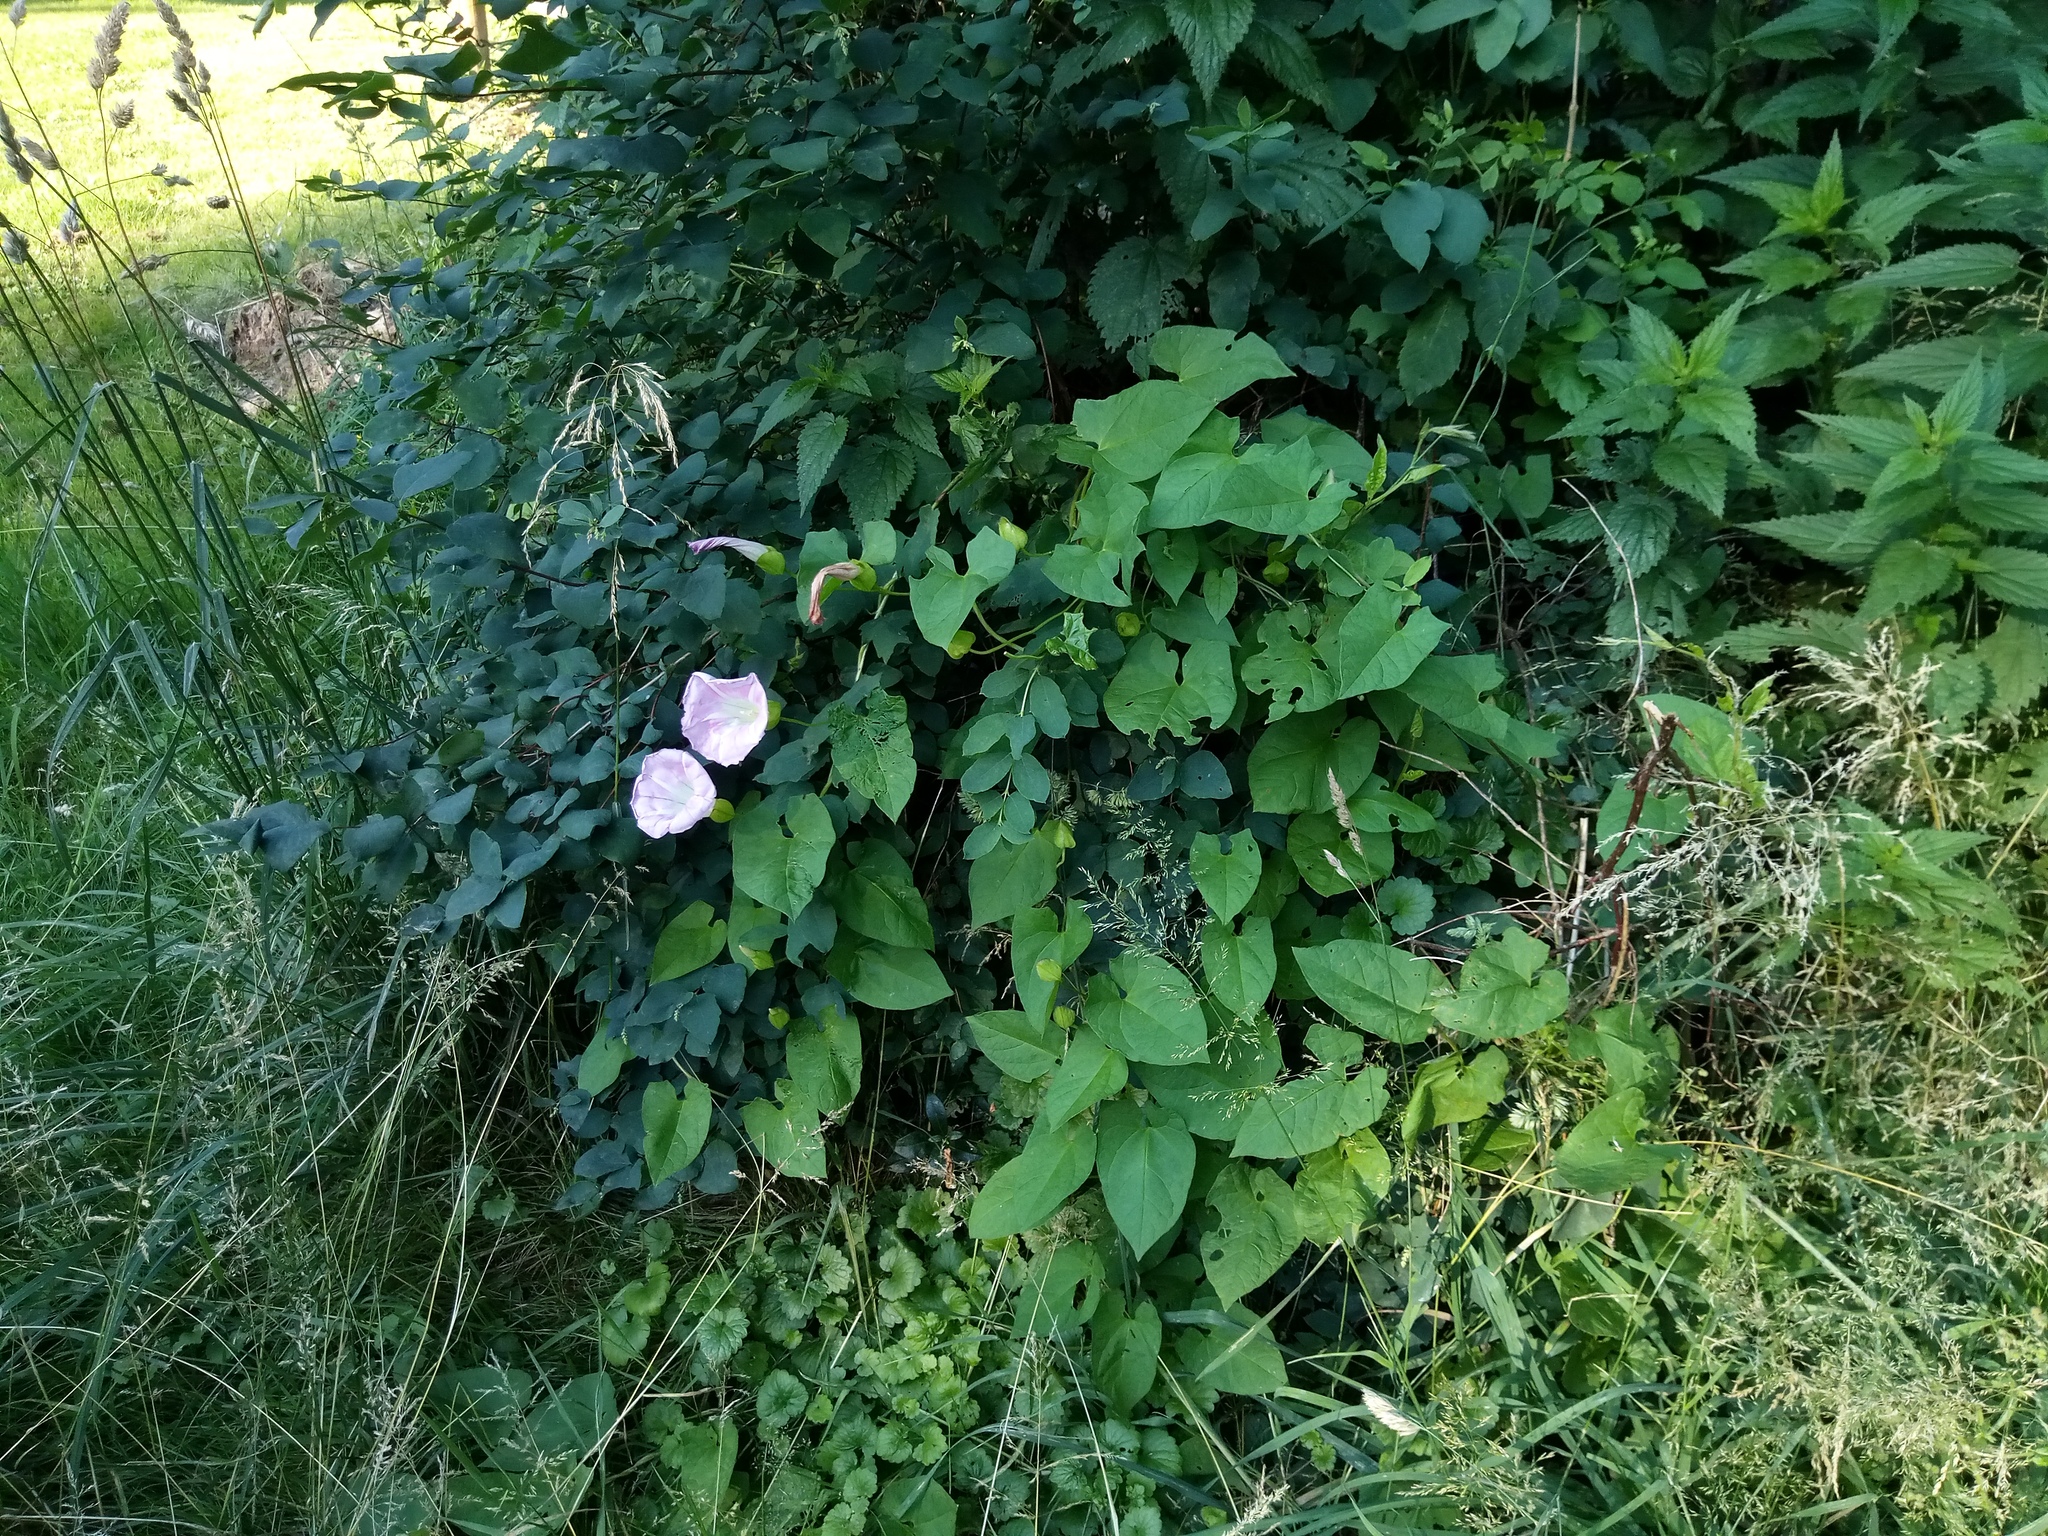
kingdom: Plantae
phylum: Tracheophyta
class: Magnoliopsida
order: Solanales
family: Convolvulaceae
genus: Calystegia
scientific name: Calystegia pulchra
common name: Hairy bindweed
